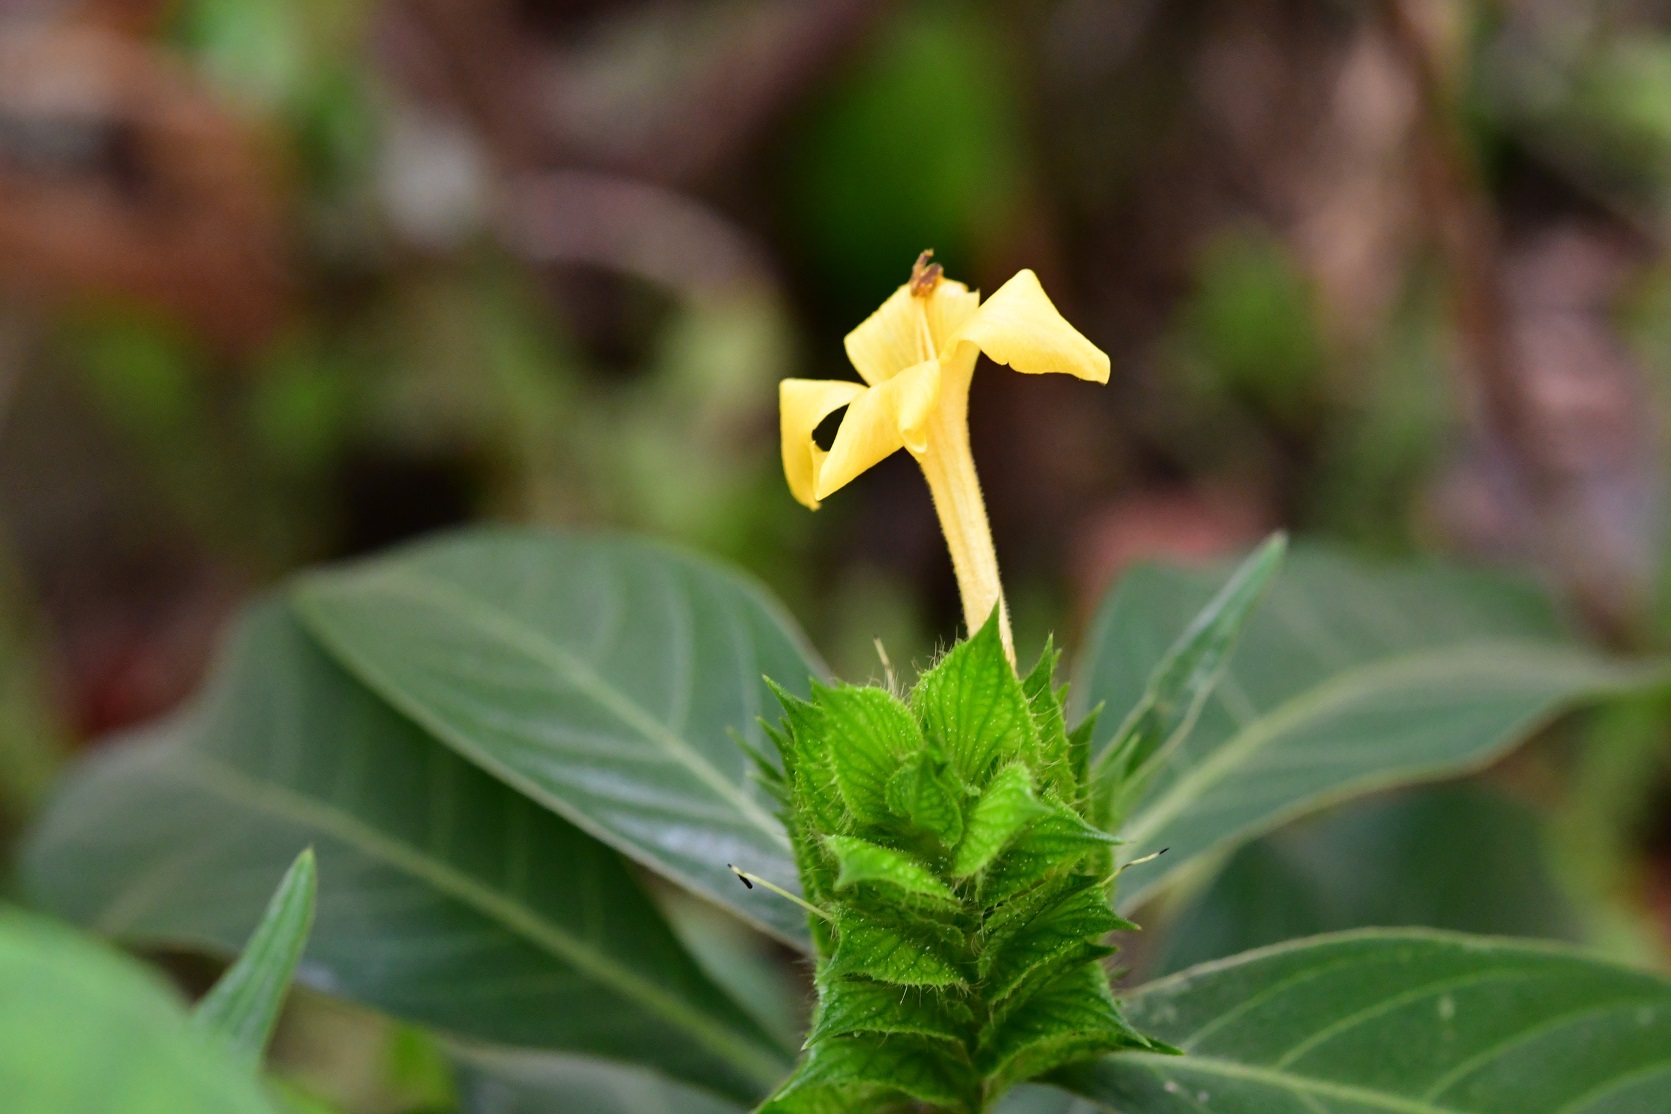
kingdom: Plantae
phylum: Tracheophyta
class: Magnoliopsida
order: Lamiales
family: Acanthaceae
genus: Barleria
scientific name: Barleria oenotheroides
